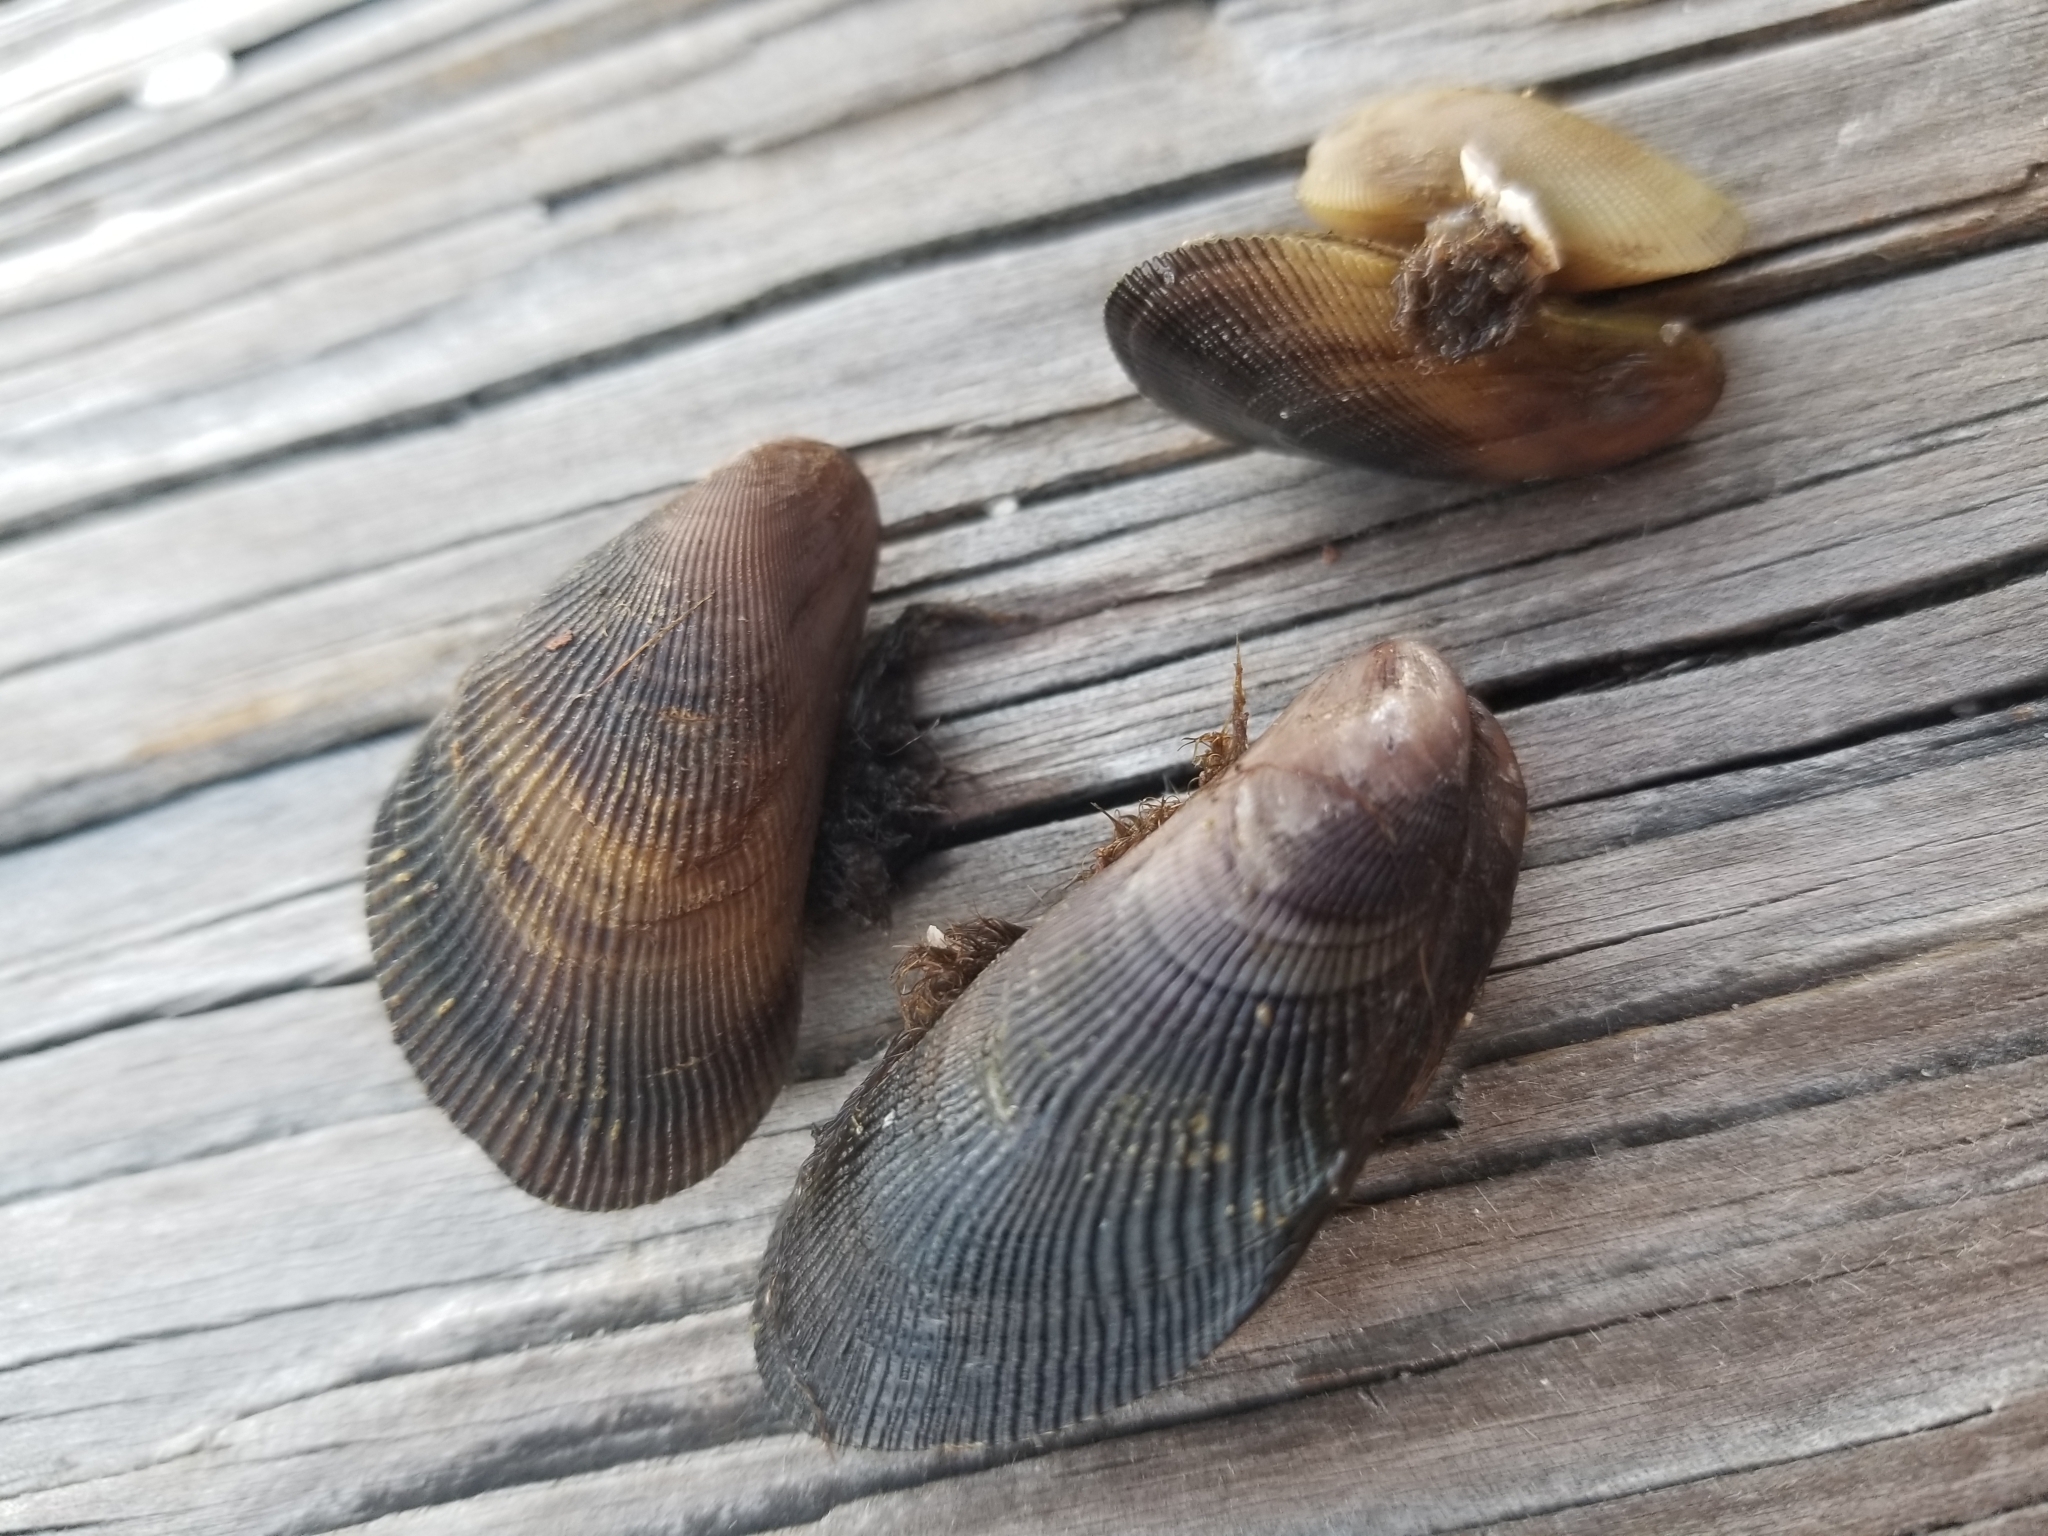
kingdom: Animalia
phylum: Mollusca
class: Bivalvia
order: Mytilida
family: Mytilidae
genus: Geukensia
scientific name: Geukensia granosissima
